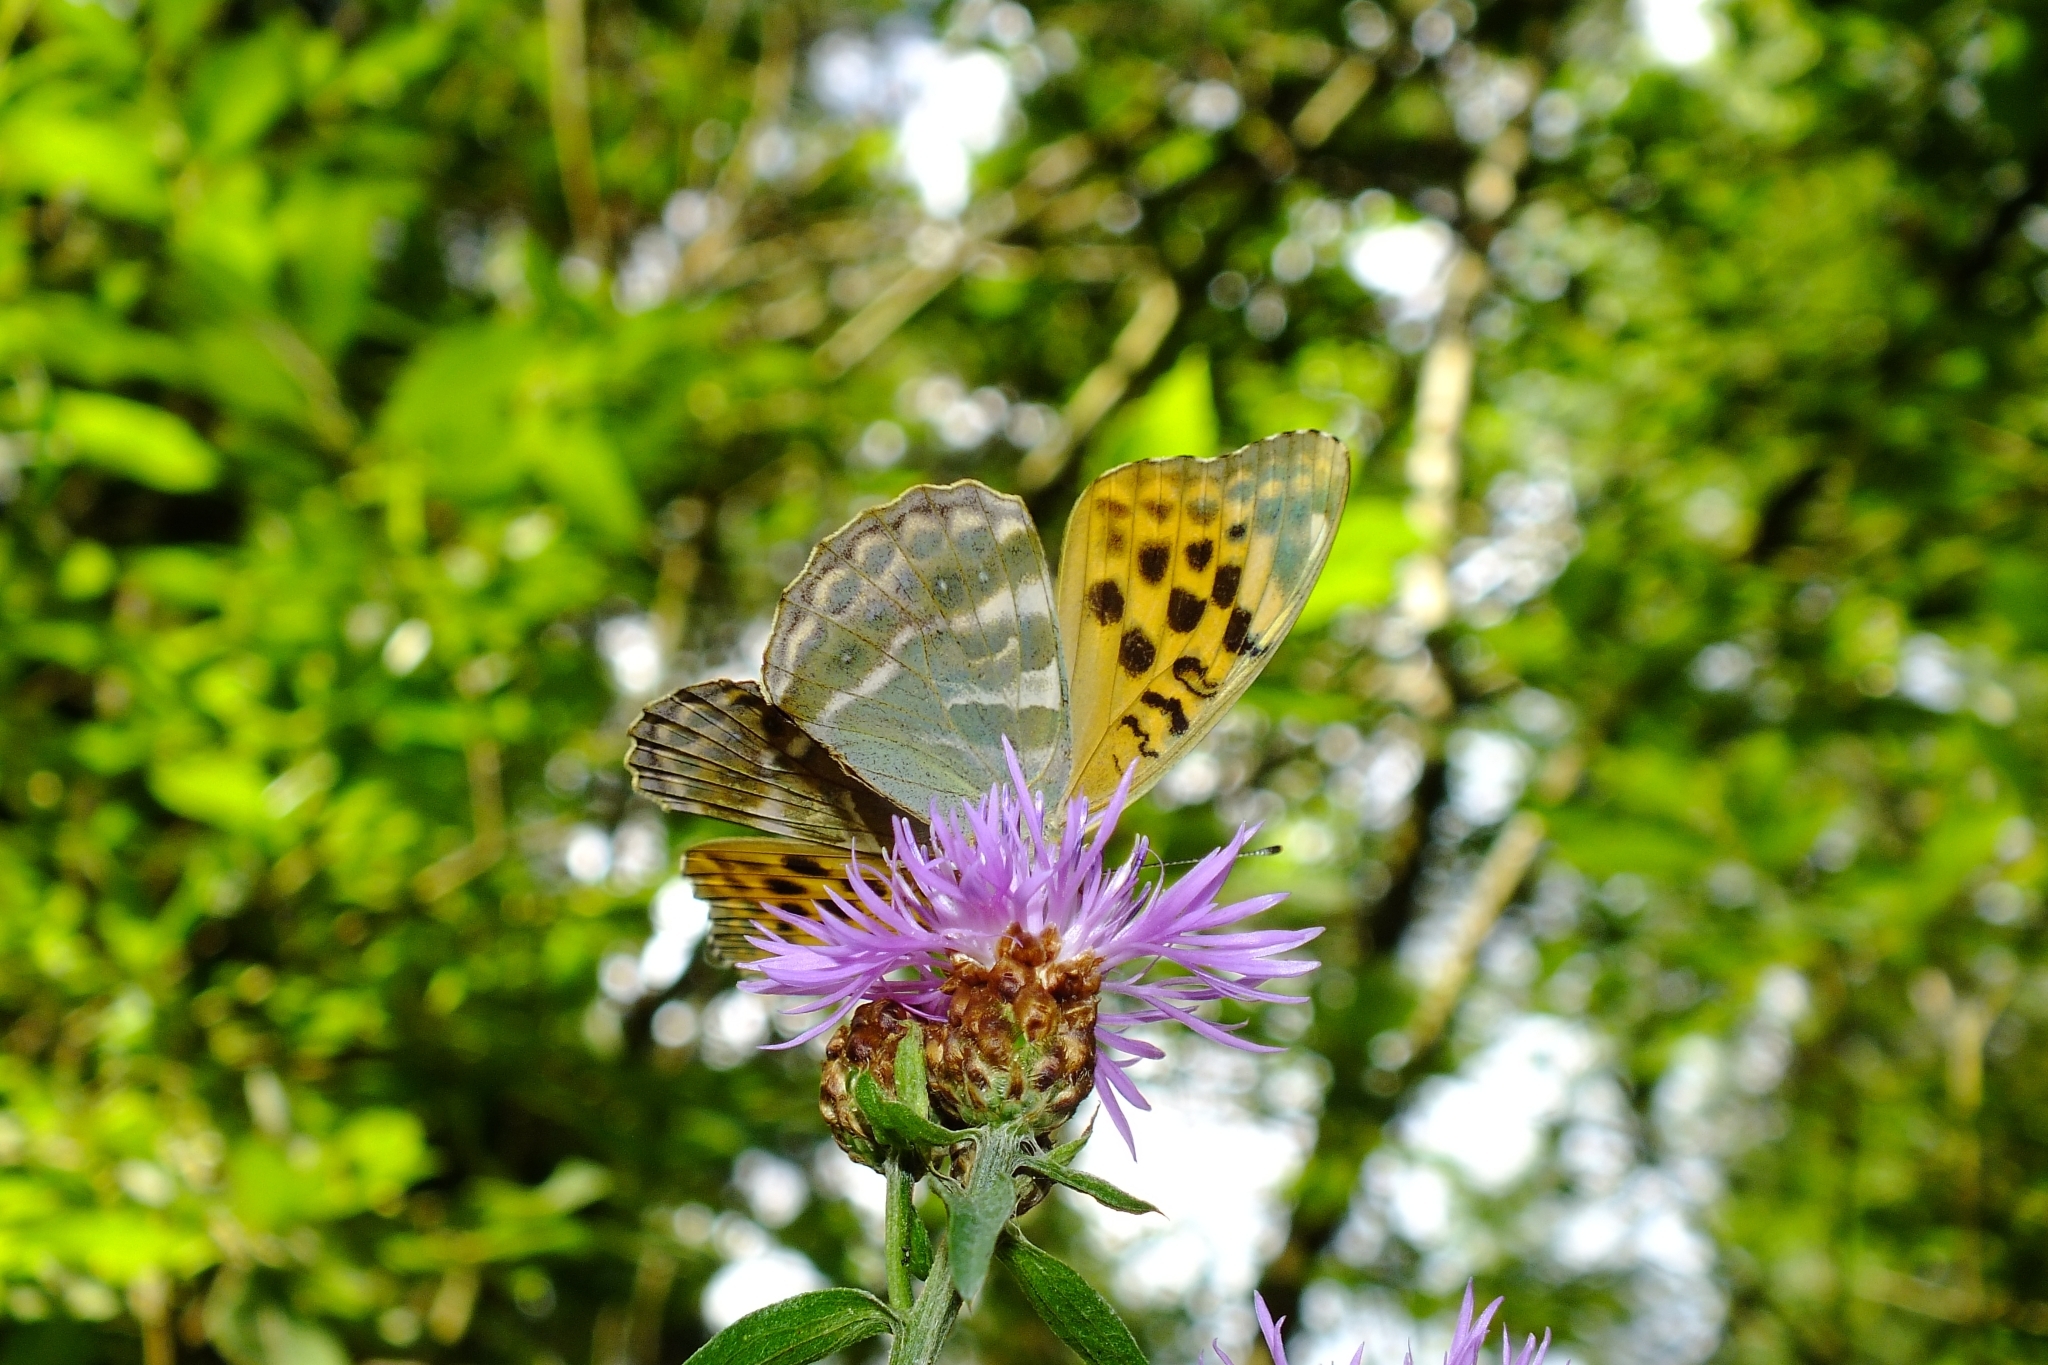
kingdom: Animalia
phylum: Arthropoda
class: Insecta
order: Lepidoptera
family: Nymphalidae
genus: Argynnis
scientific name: Argynnis paphia
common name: Silver-washed fritillary
